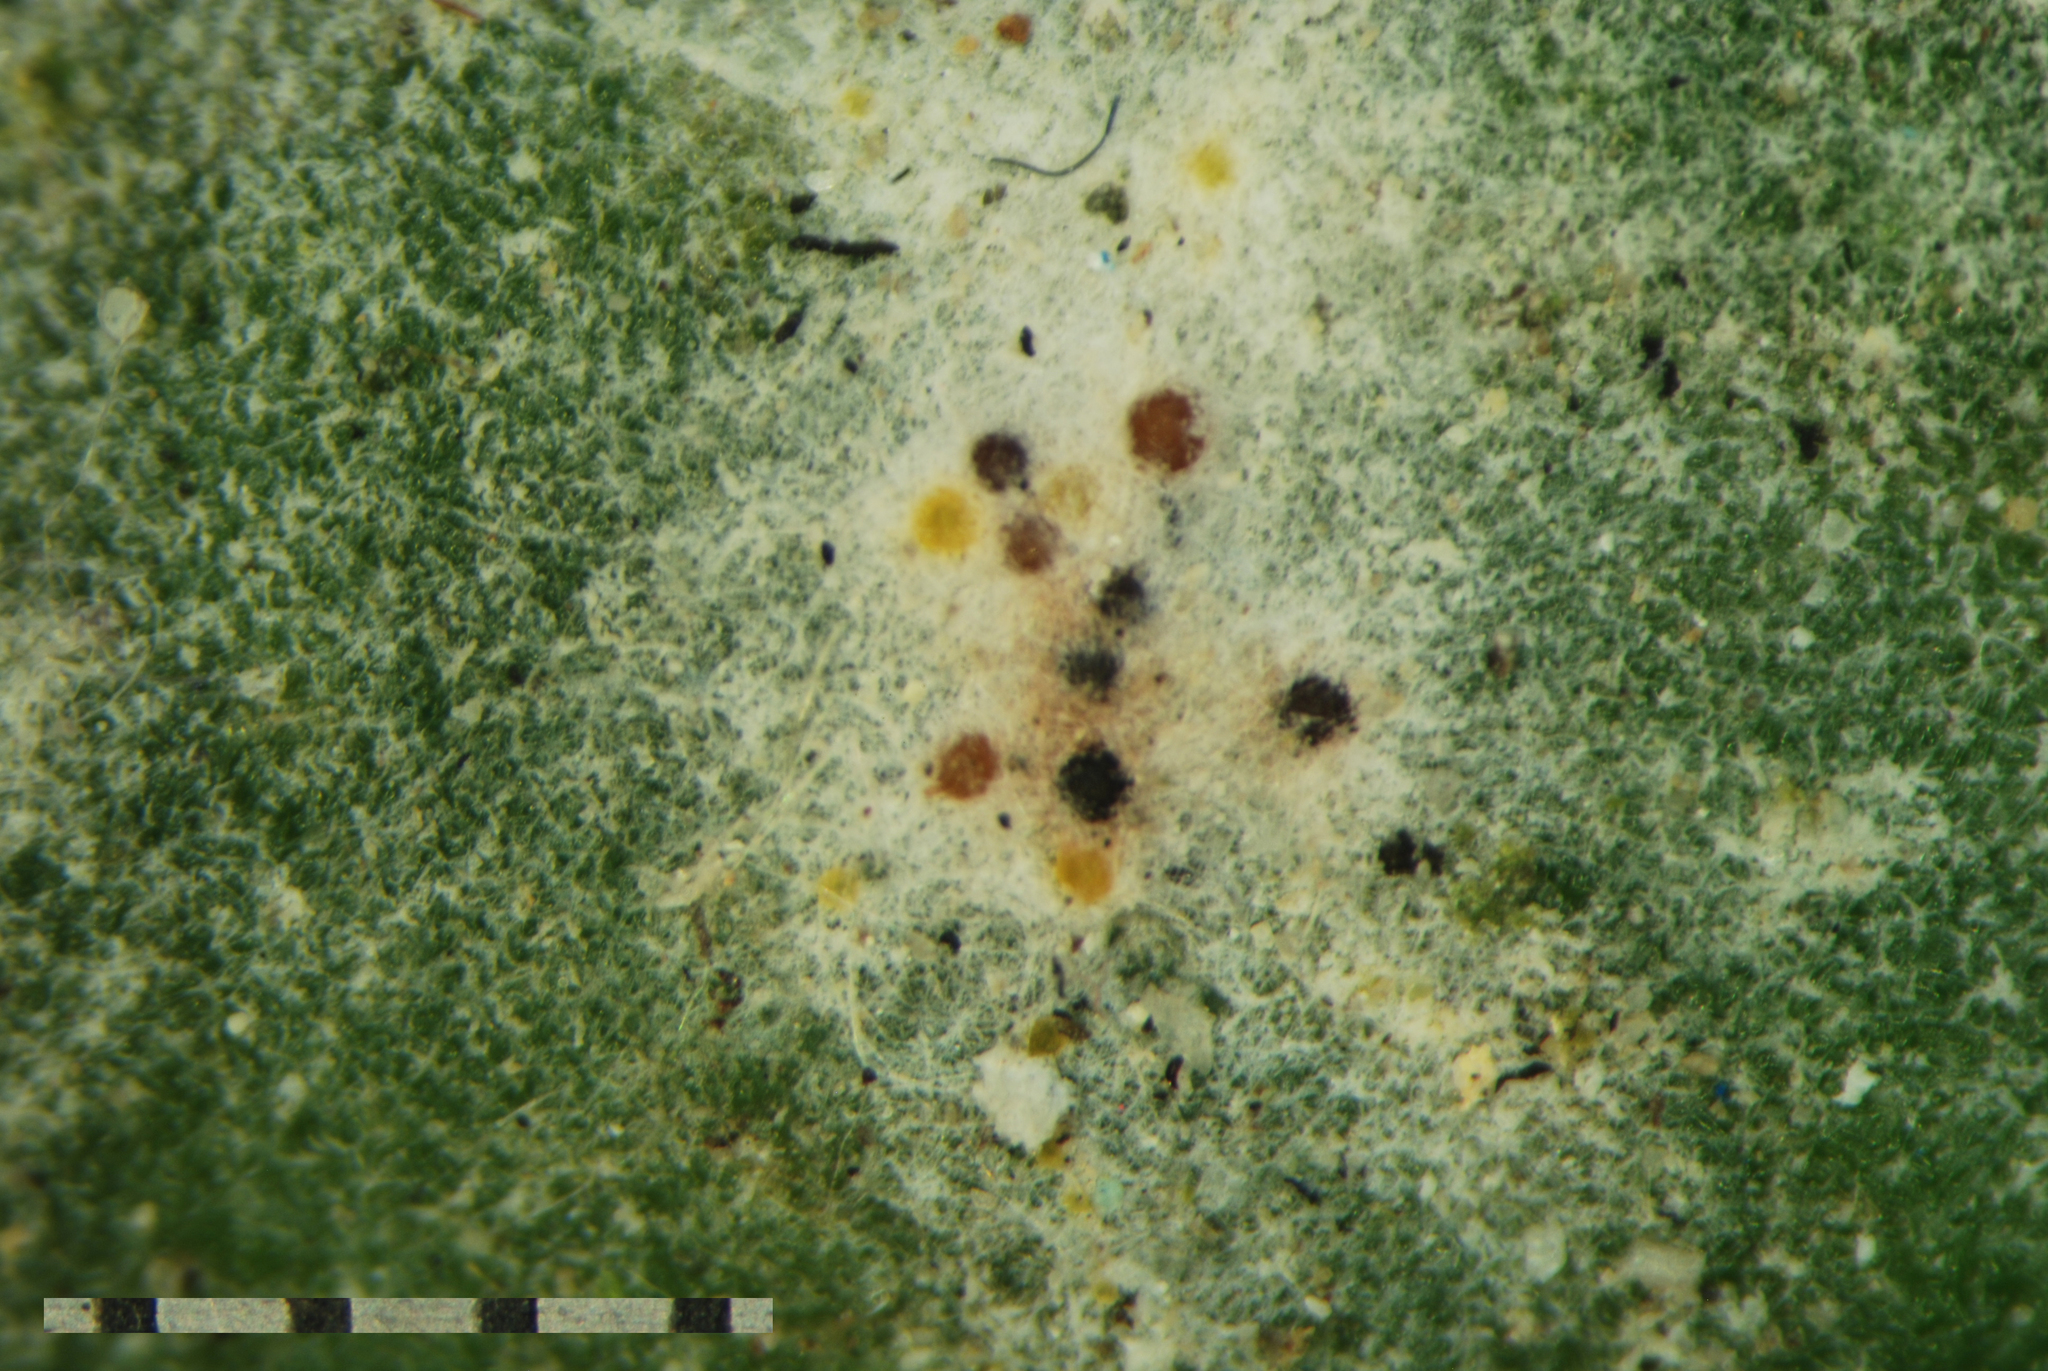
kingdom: Fungi
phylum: Ascomycota
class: Leotiomycetes
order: Helotiales
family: Erysiphaceae
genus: Neoerysiphe
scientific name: Neoerysiphe kerribeeensis
